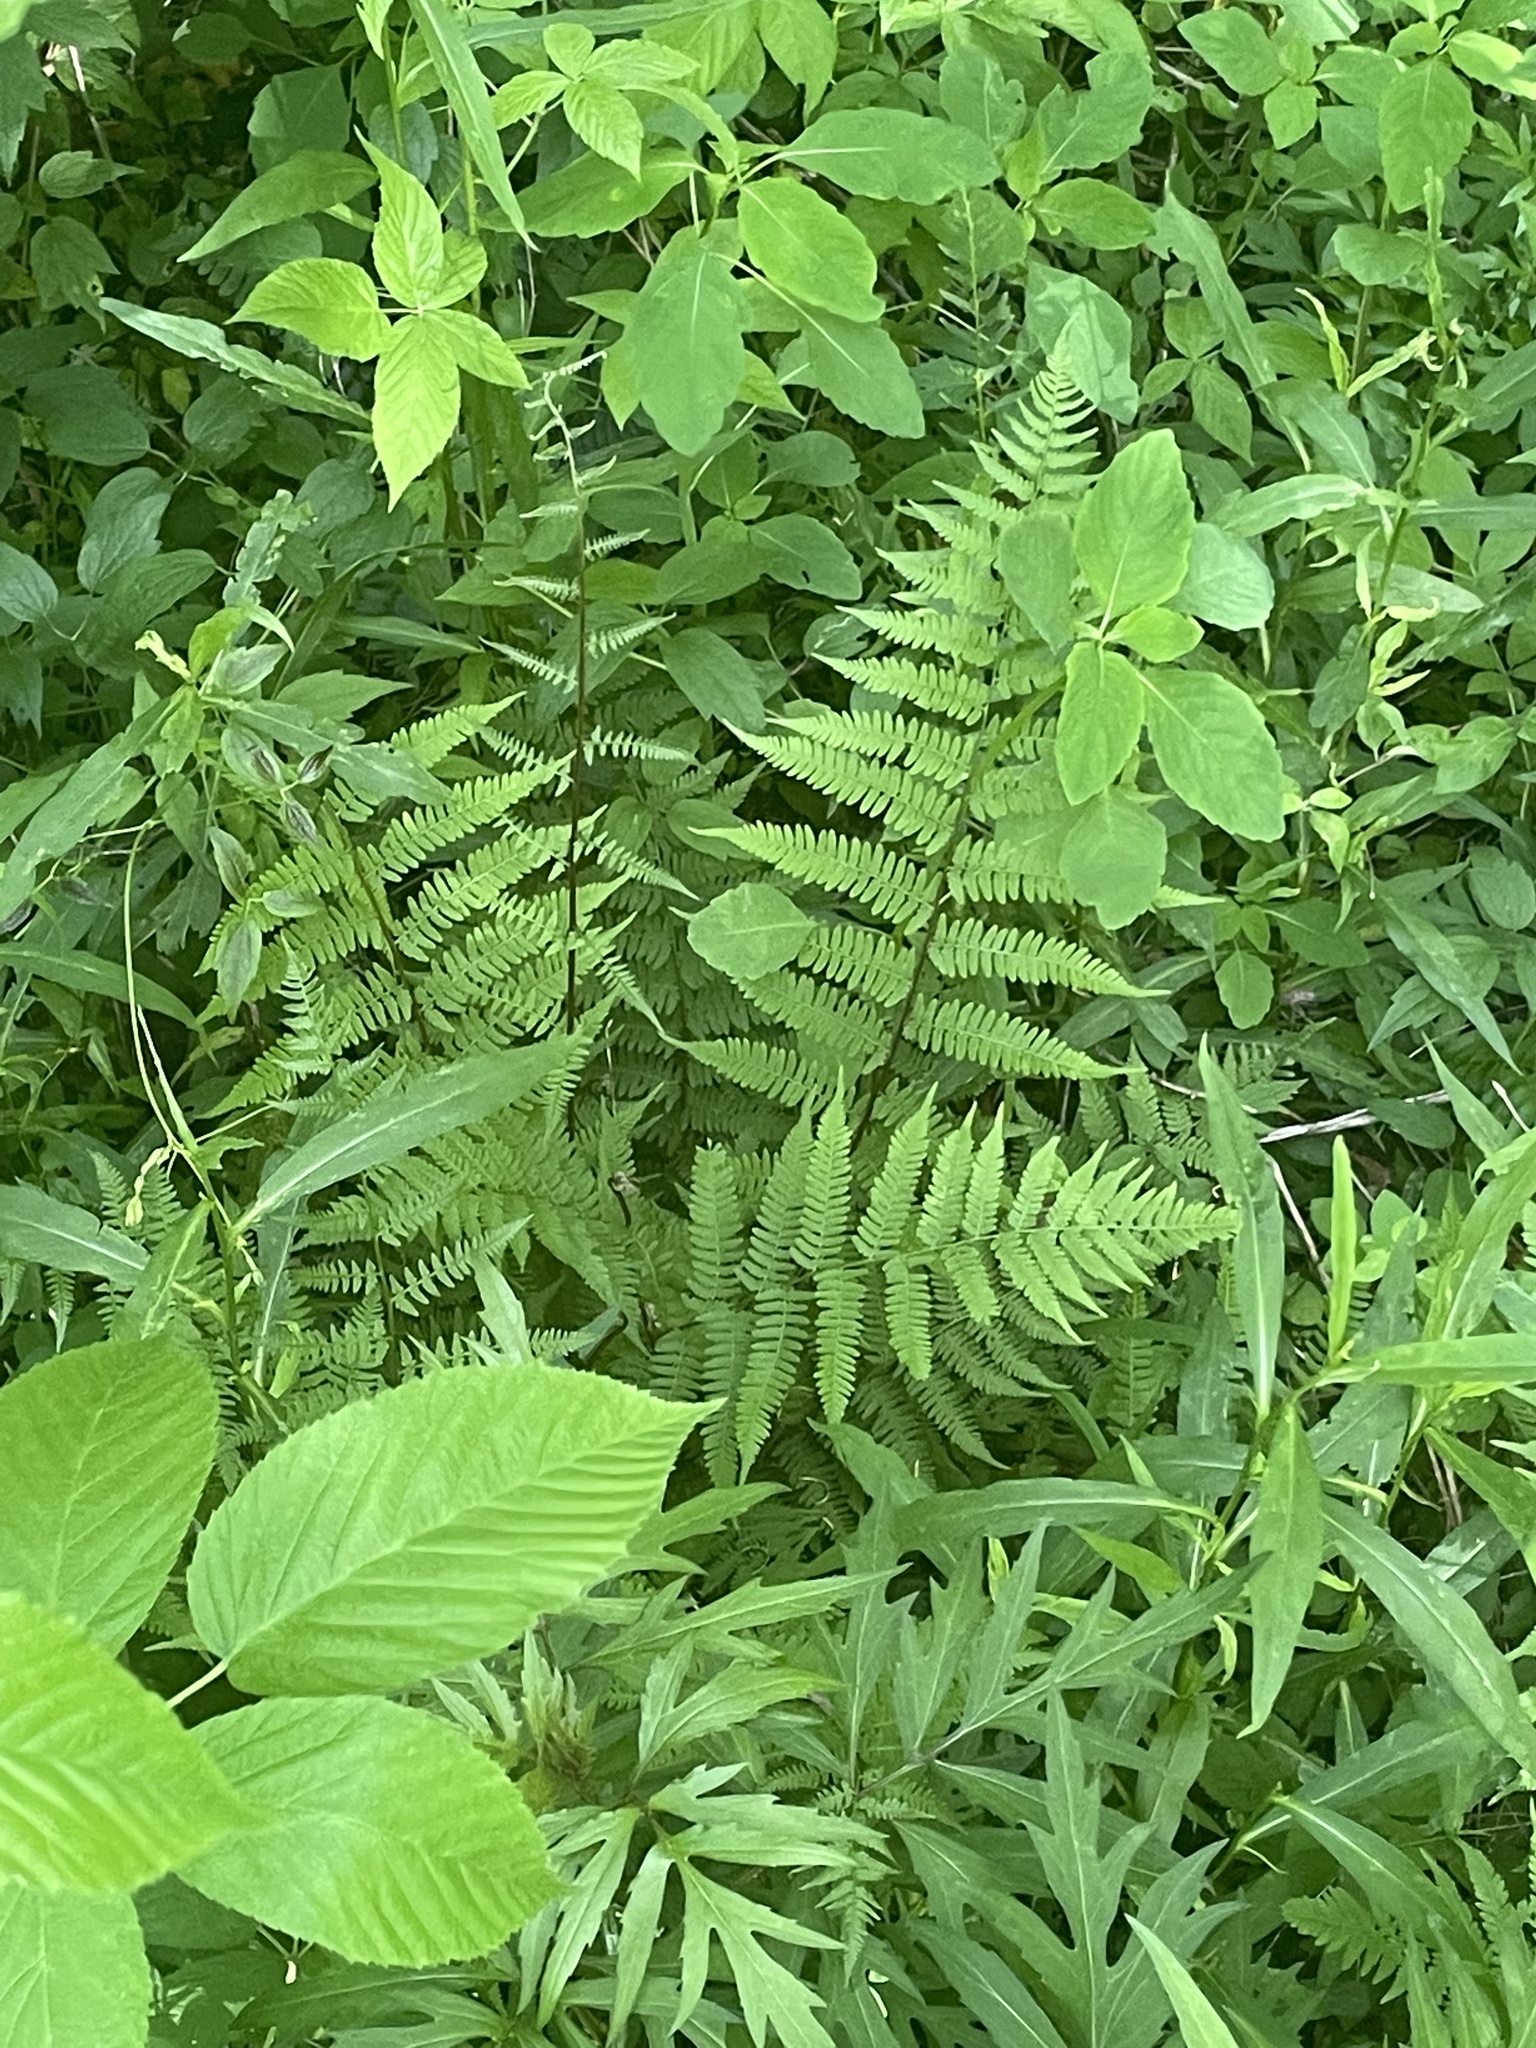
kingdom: Plantae
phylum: Tracheophyta
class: Polypodiopsida
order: Polypodiales
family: Athyriaceae
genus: Athyrium
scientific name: Athyrium asplenioides
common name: Southern lady fern
